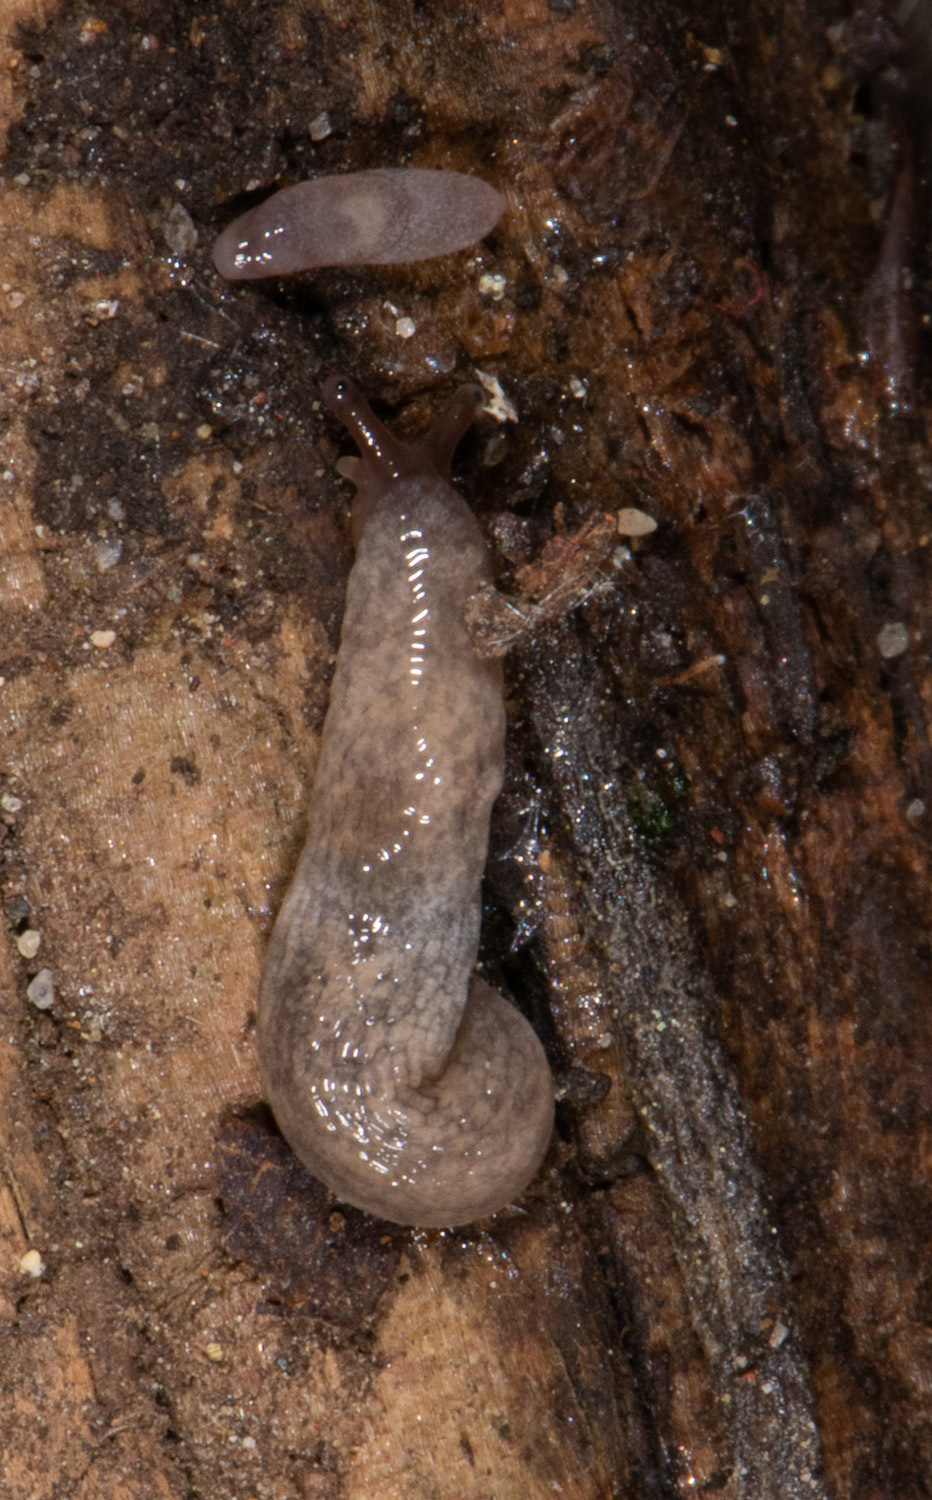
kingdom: Animalia
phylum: Mollusca
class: Gastropoda
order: Stylommatophora
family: Agriolimacidae
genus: Deroceras
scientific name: Deroceras reticulatum
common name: Gray field slug
